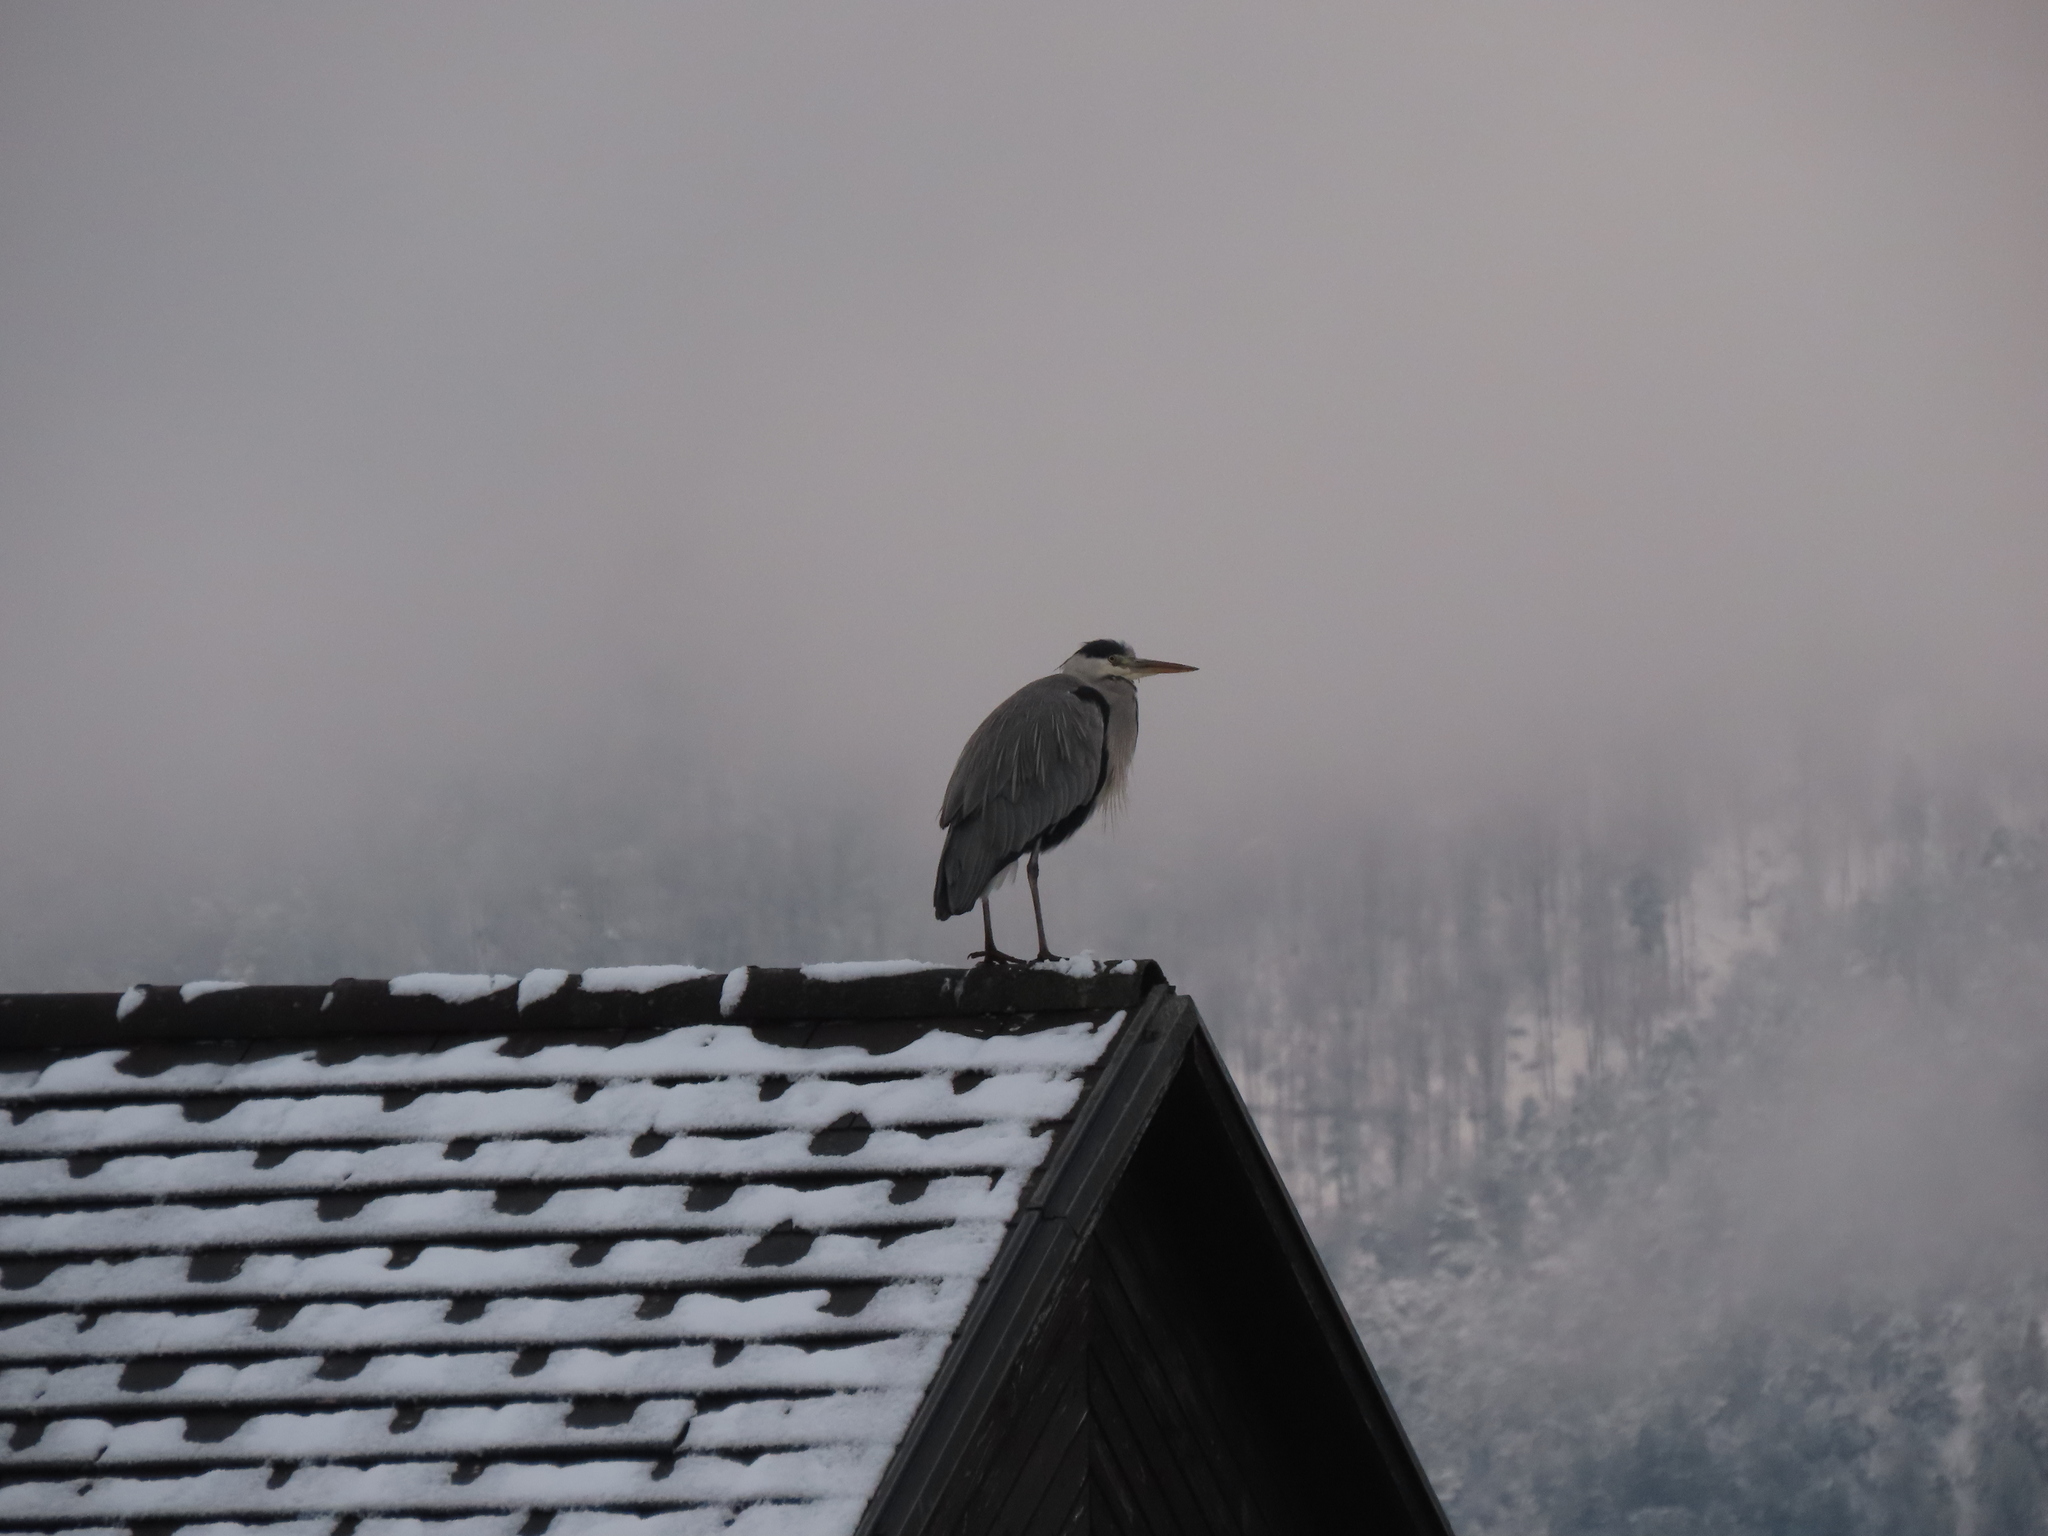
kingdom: Animalia
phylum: Chordata
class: Aves
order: Pelecaniformes
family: Ardeidae
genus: Ardea
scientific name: Ardea cinerea
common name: Grey heron
